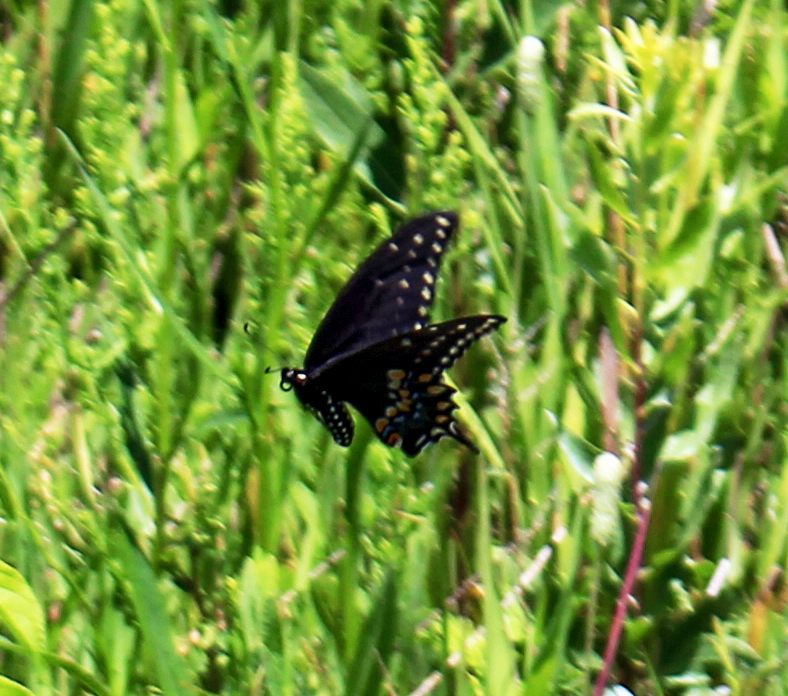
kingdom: Animalia
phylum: Arthropoda
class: Insecta
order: Lepidoptera
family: Papilionidae
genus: Papilio
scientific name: Papilio polyxenes
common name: Black swallowtail
